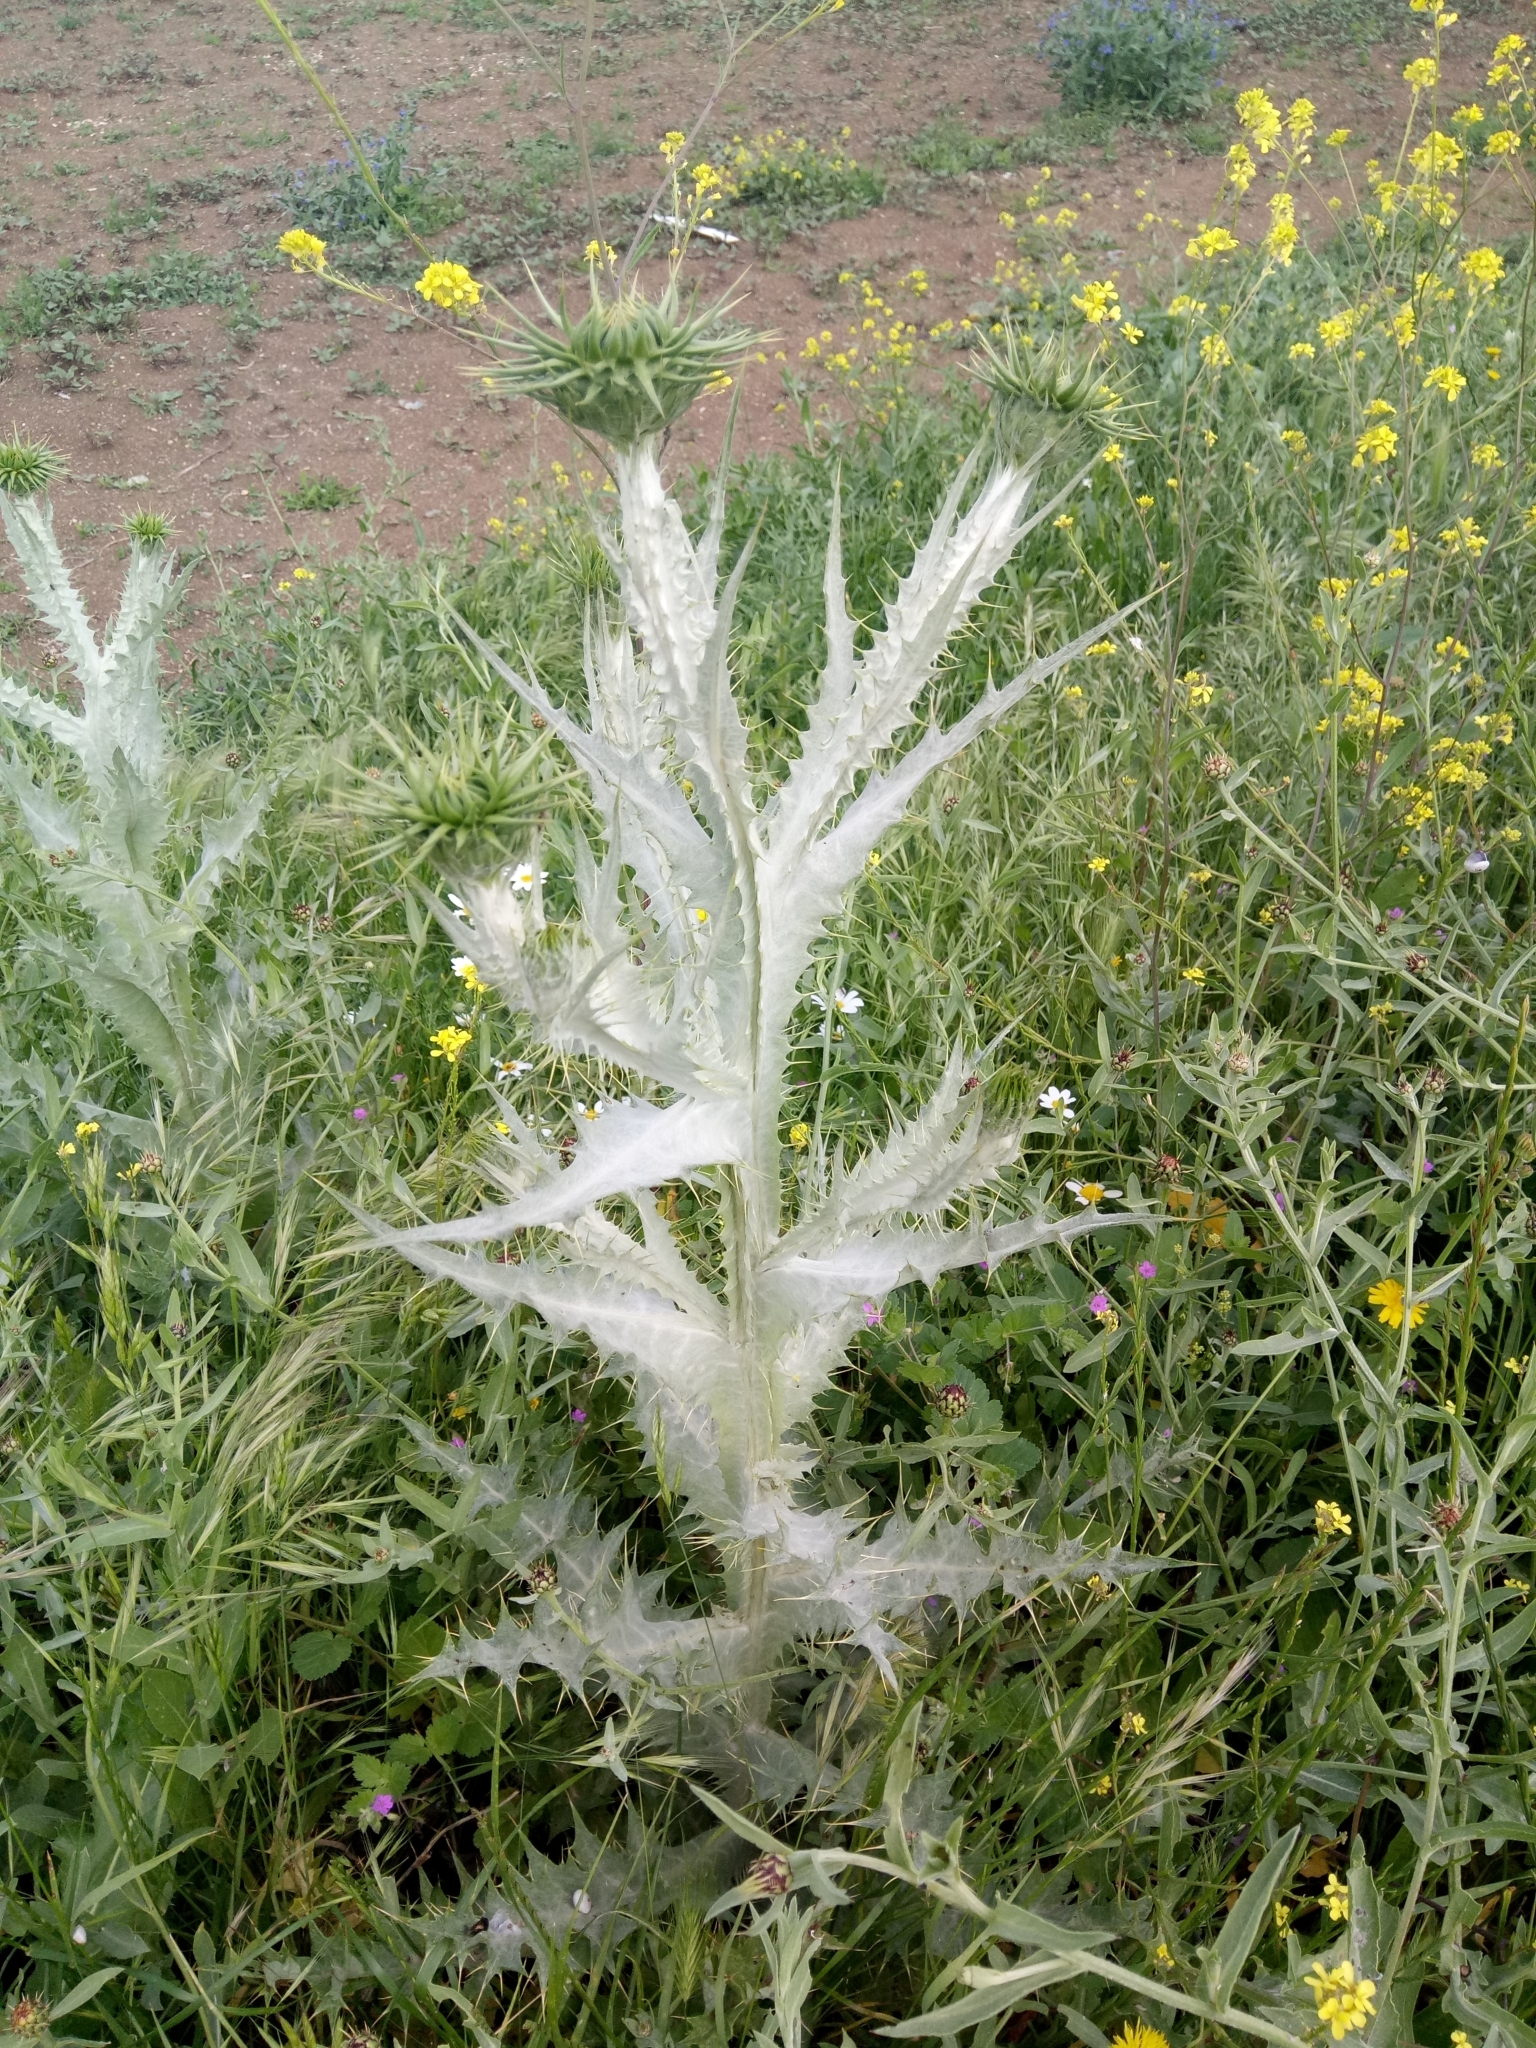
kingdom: Plantae
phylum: Tracheophyta
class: Magnoliopsida
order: Asterales
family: Asteraceae
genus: Onopordum
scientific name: Onopordum macracanthum
